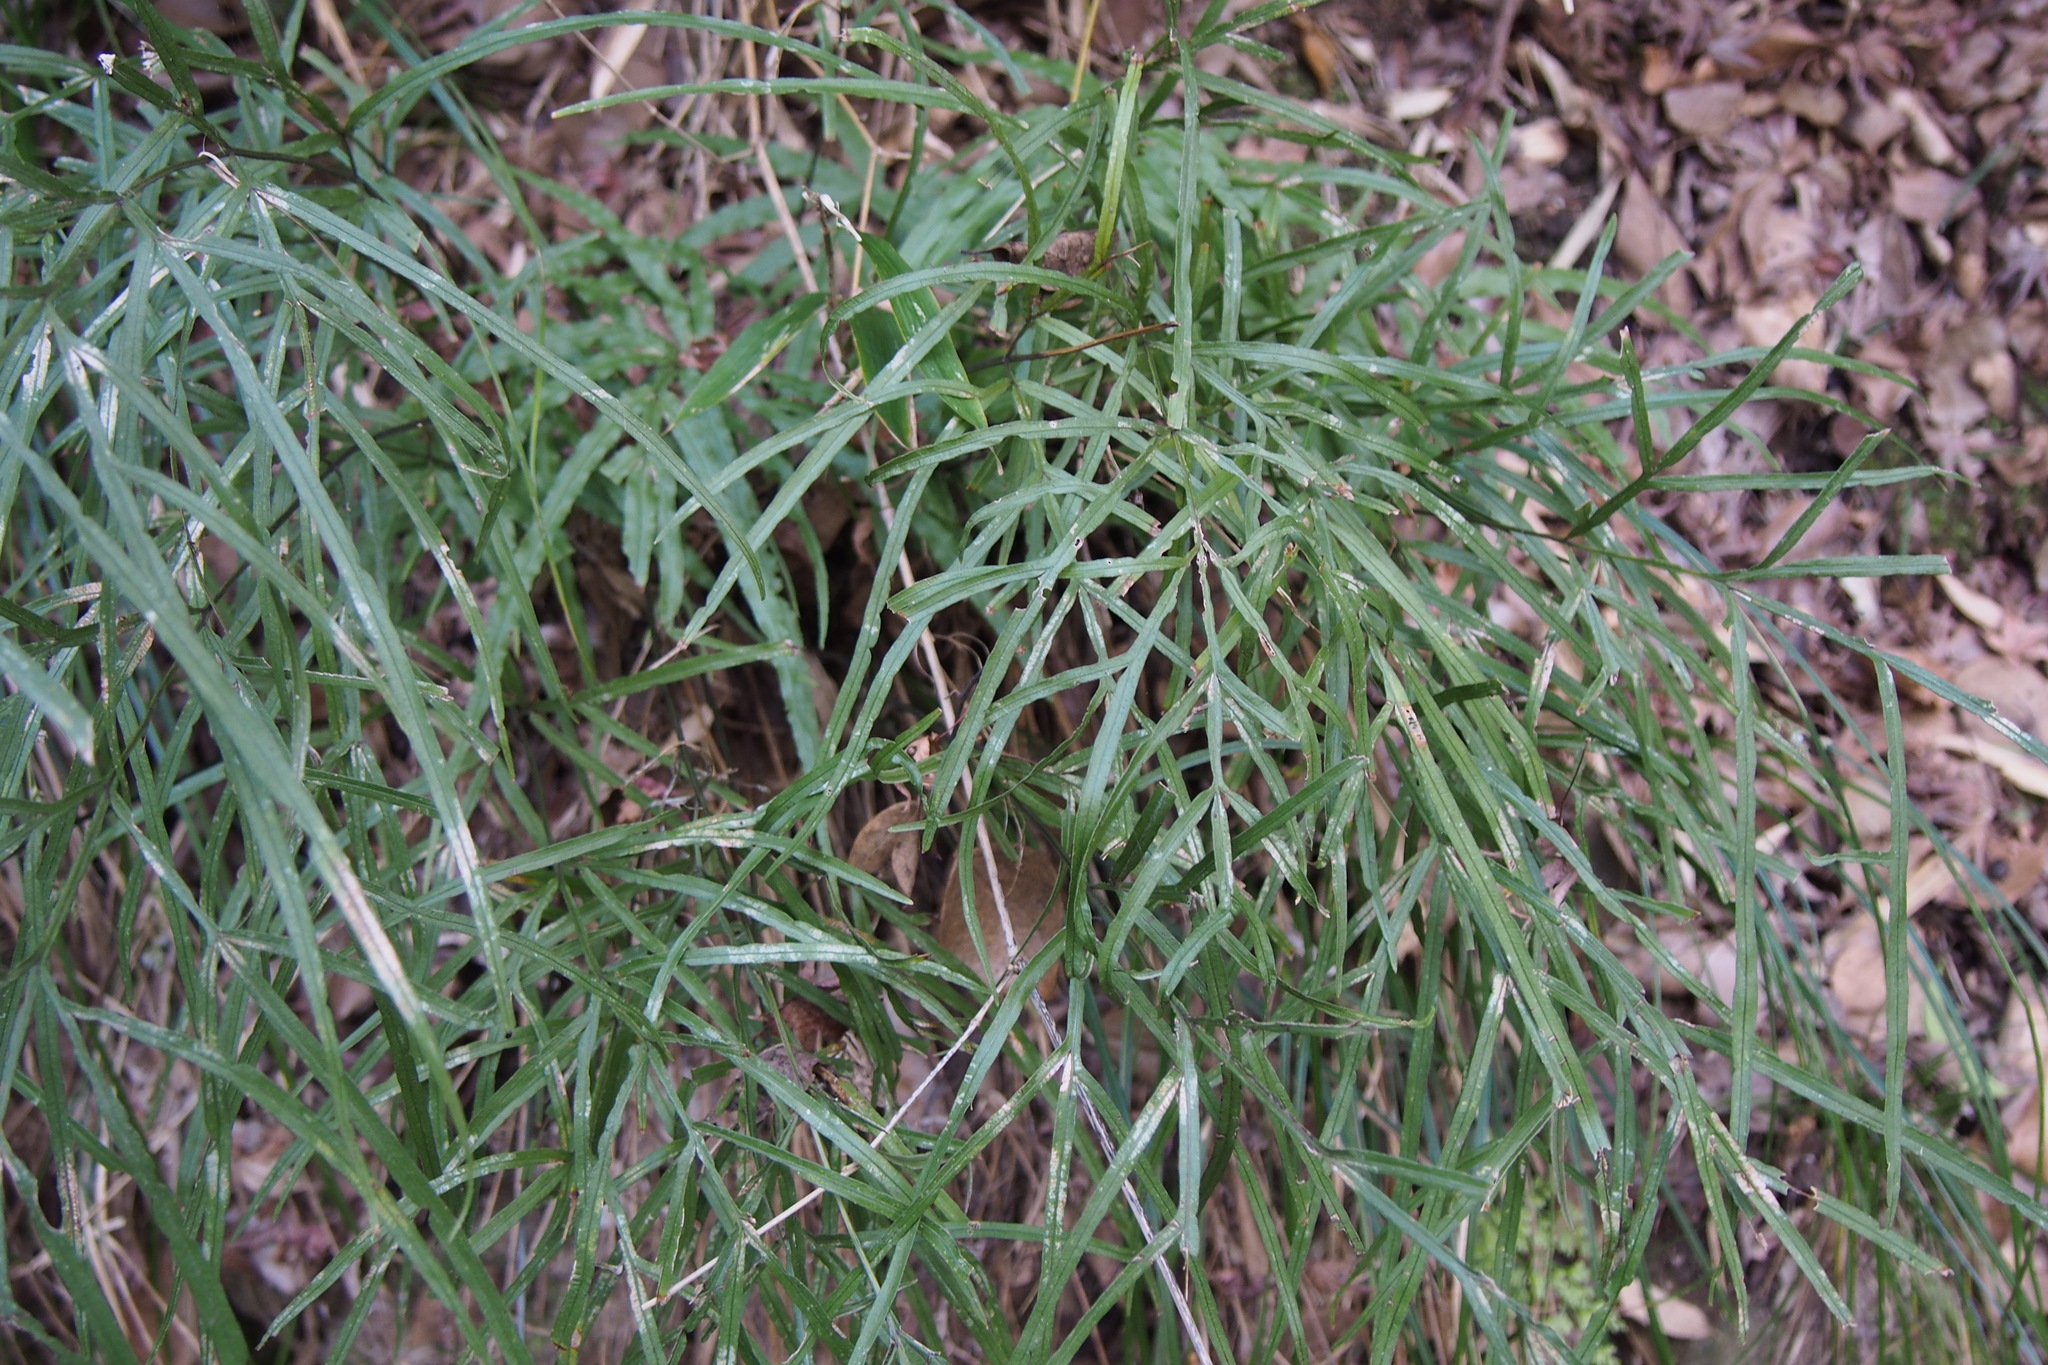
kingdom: Plantae
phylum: Tracheophyta
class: Polypodiopsida
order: Polypodiales
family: Pteridaceae
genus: Pteris
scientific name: Pteris multifida
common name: Spider brake
